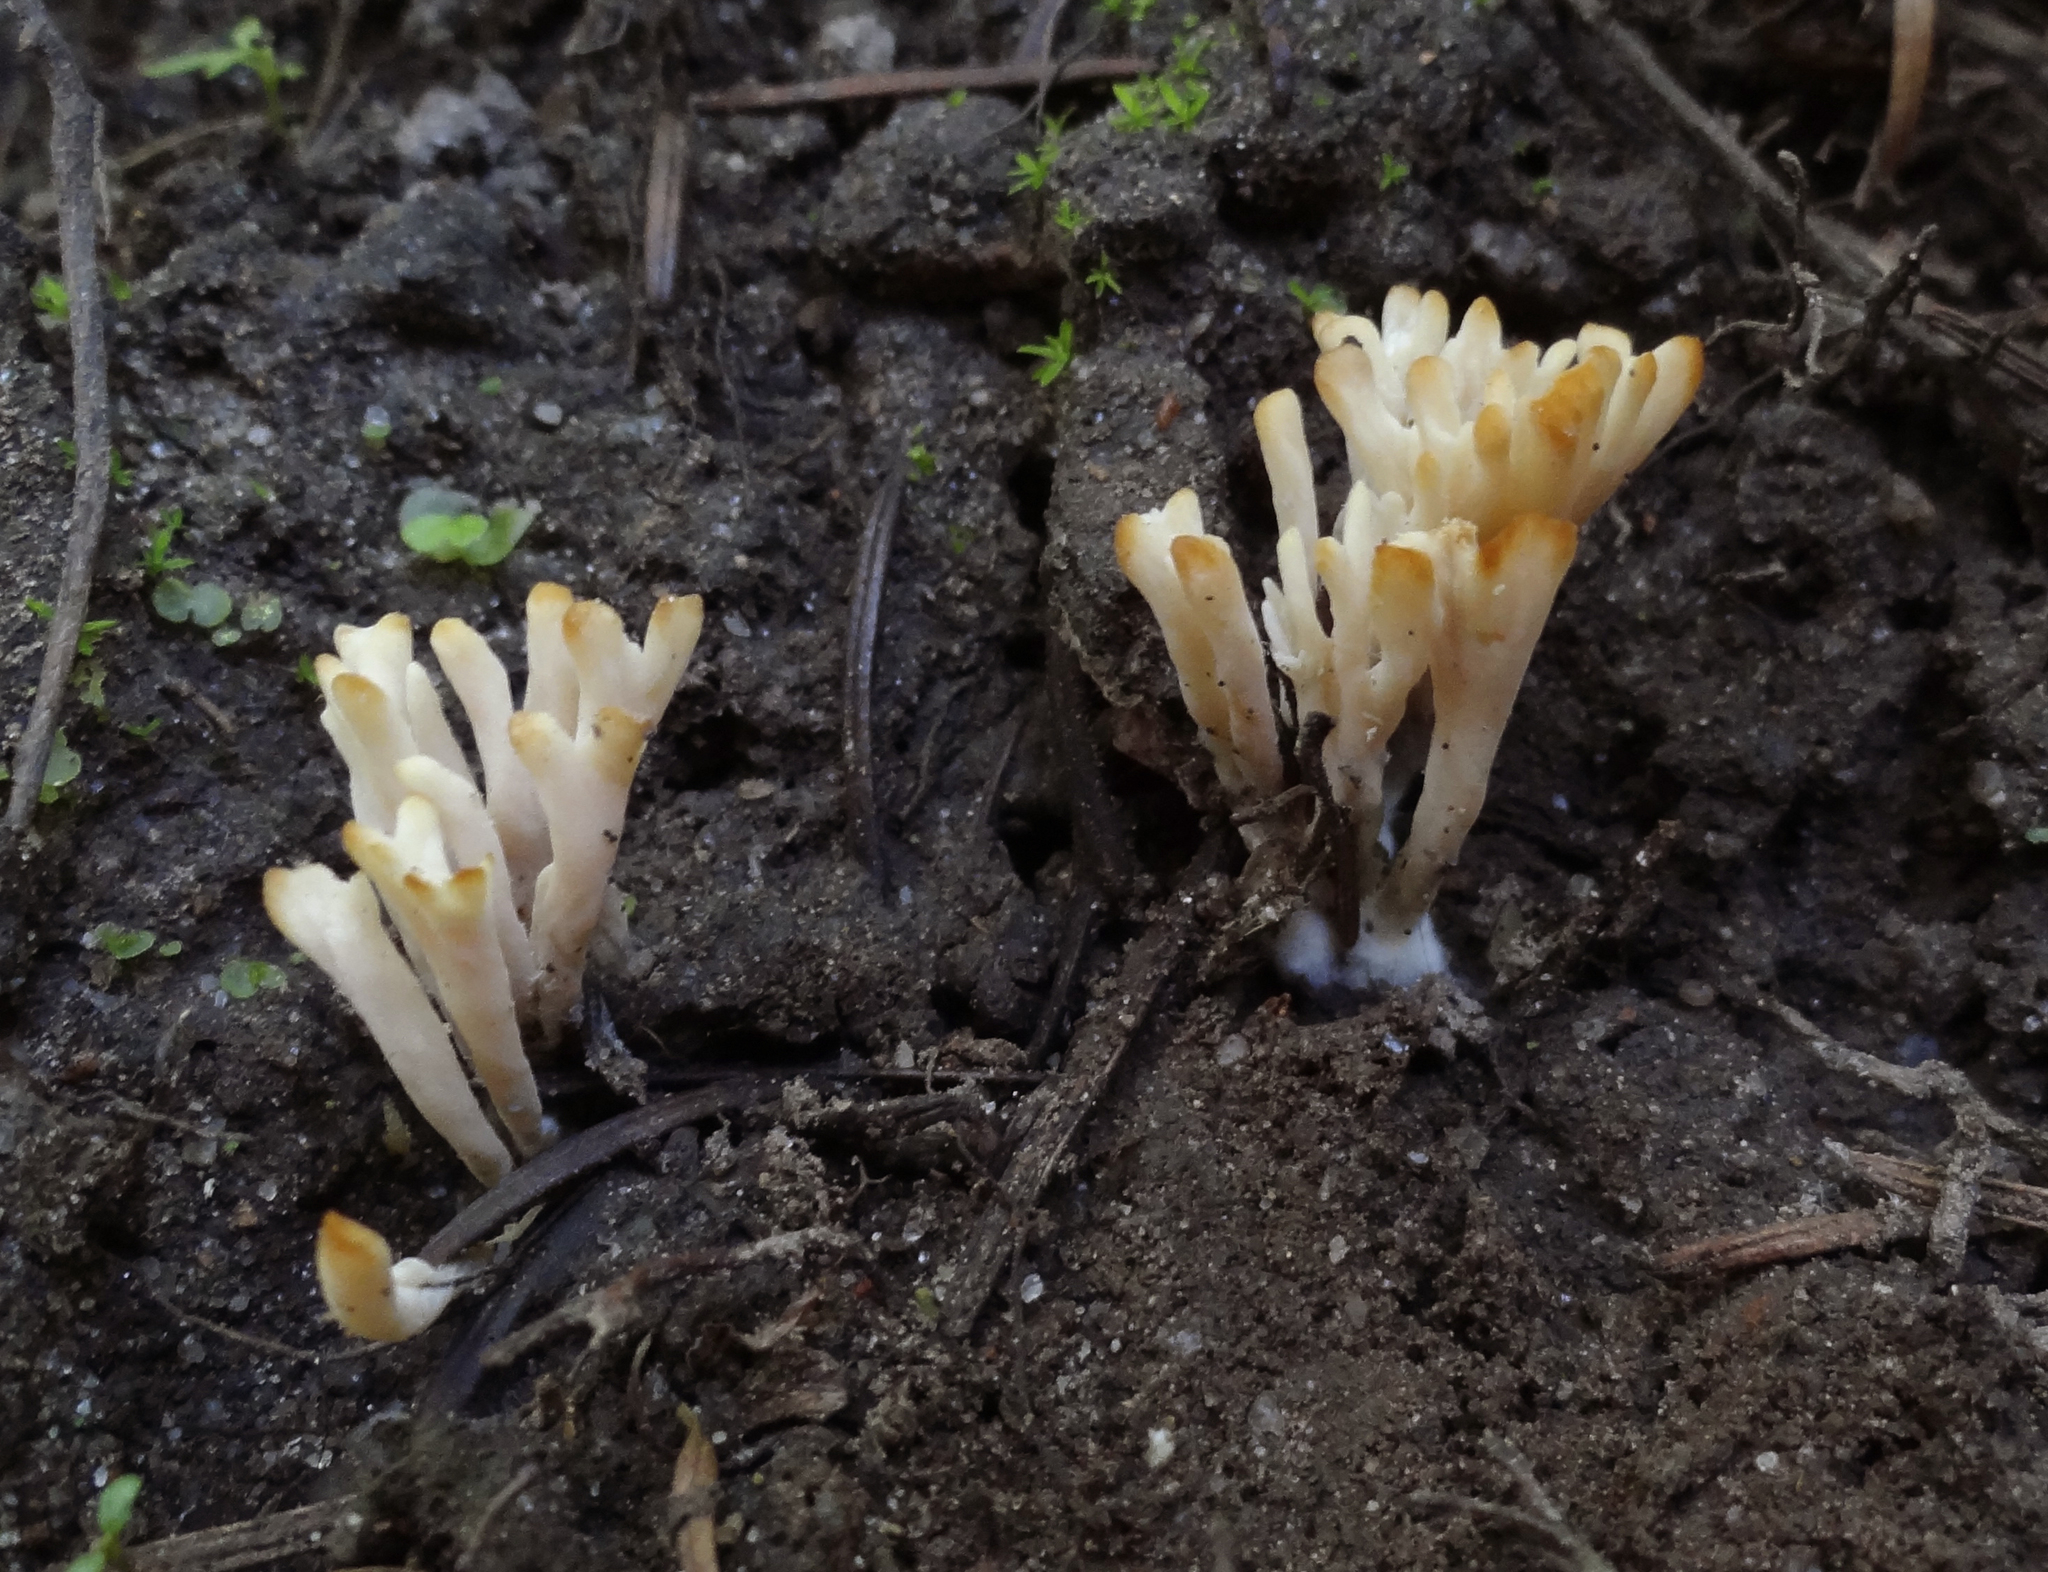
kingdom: Fungi
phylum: Basidiomycota
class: Agaricomycetes
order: Tremellodendropsidales
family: Tremellodendropsidaceae
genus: Tremellodendropsis
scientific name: Tremellodendropsis tuberosa
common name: Ashen coral
